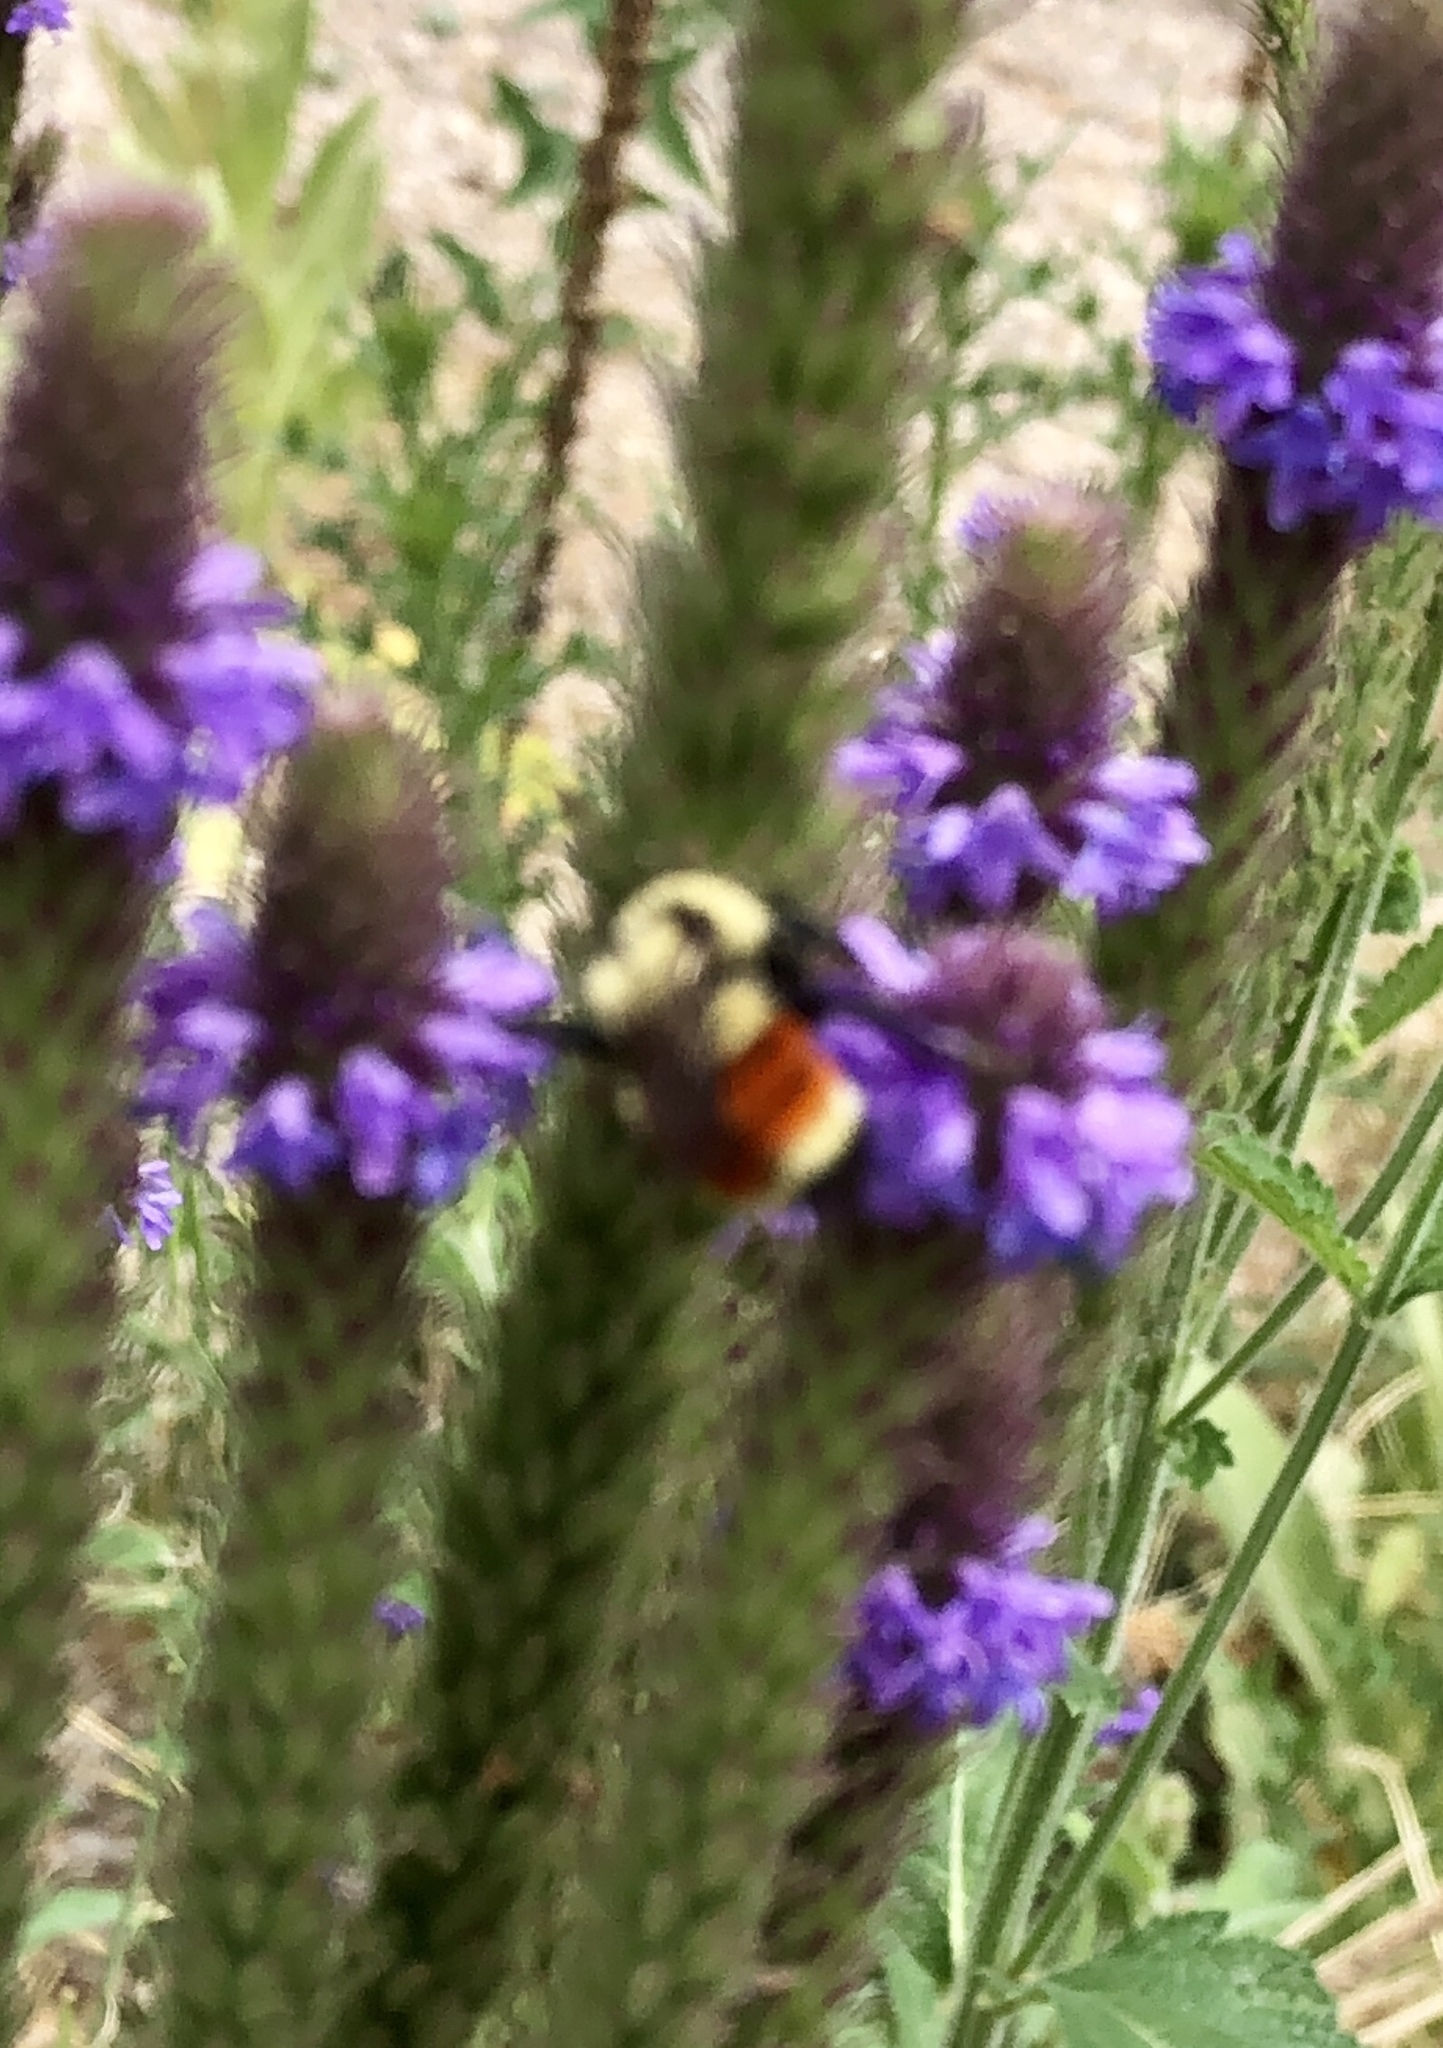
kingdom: Animalia
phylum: Arthropoda
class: Insecta
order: Hymenoptera
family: Apidae
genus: Bombus
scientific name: Bombus huntii
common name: Hunt bumble bee
